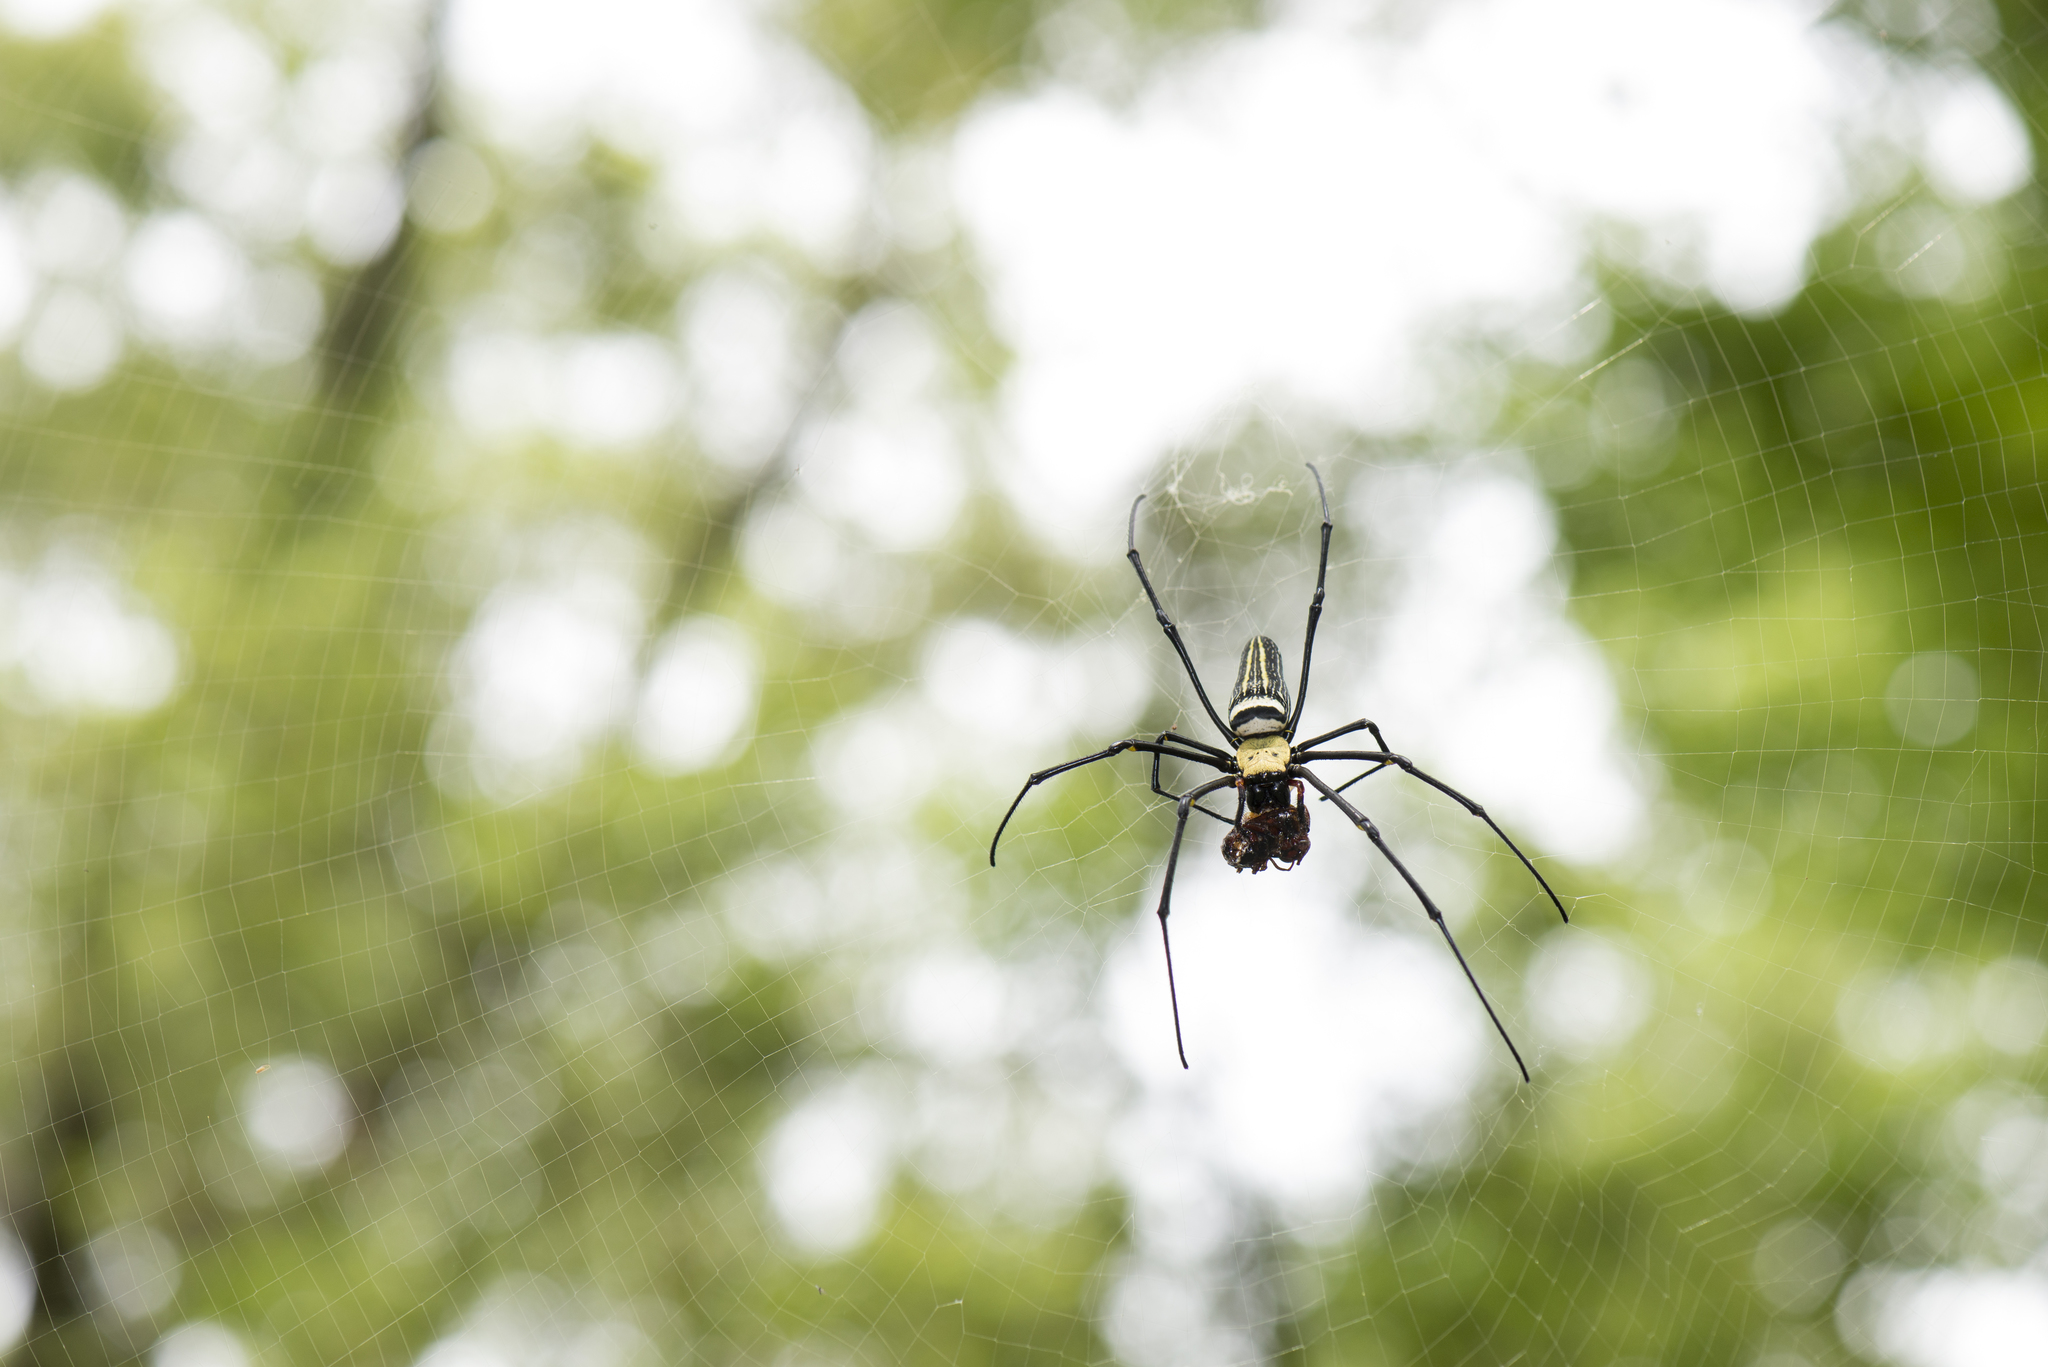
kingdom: Animalia
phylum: Arthropoda
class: Arachnida
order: Araneae
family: Araneidae
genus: Nephila
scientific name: Nephila pilipes
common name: Giant golden orb weaver
